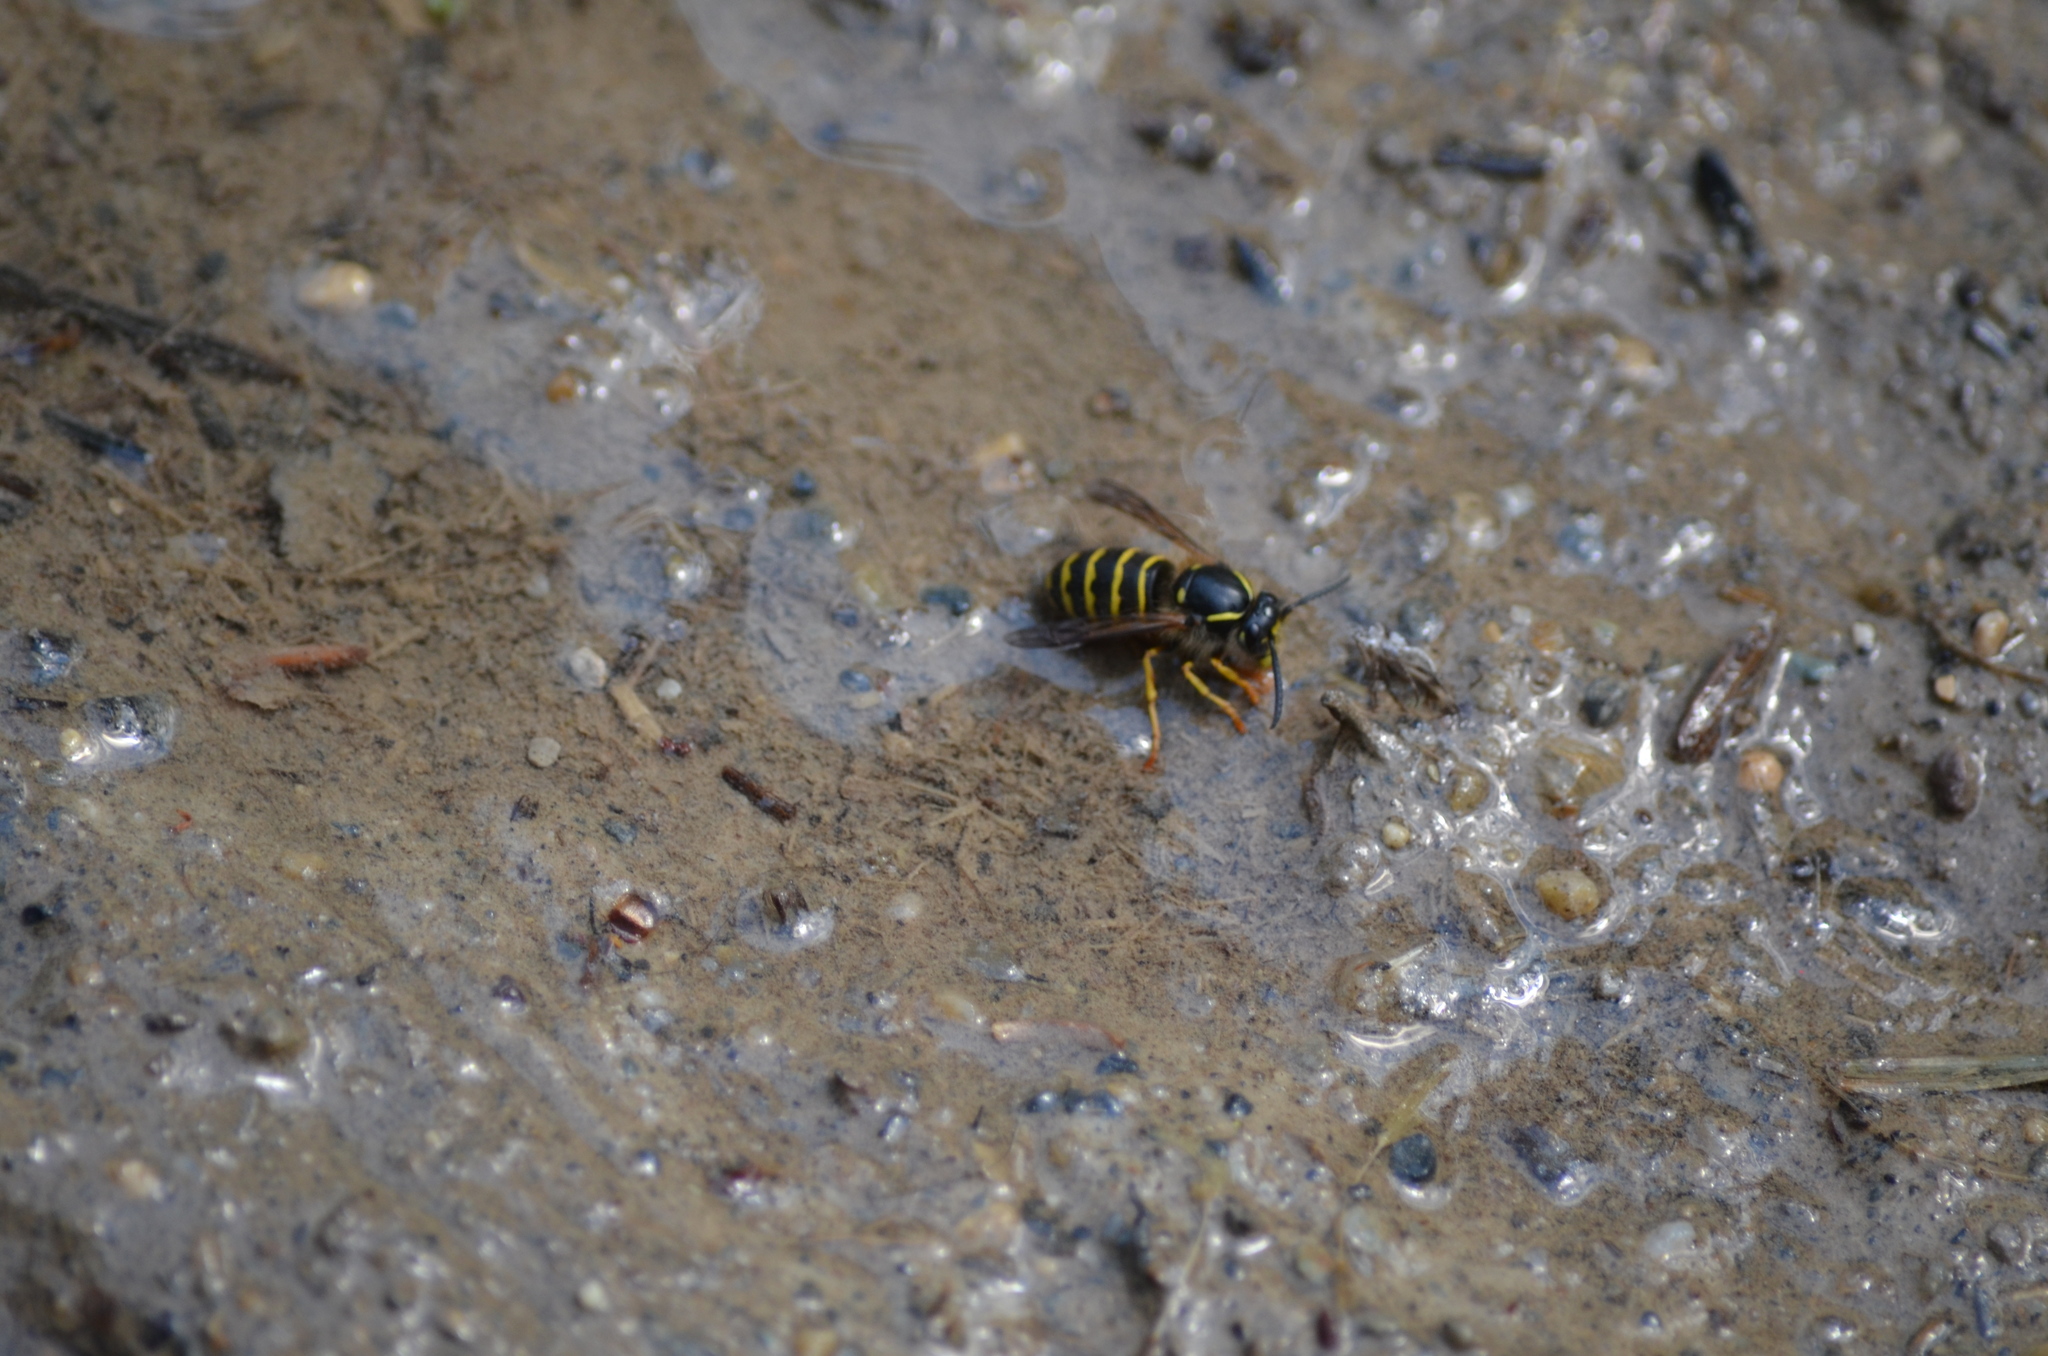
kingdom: Animalia
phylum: Arthropoda
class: Insecta
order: Hymenoptera
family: Vespidae
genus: Dolichovespula
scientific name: Dolichovespula
